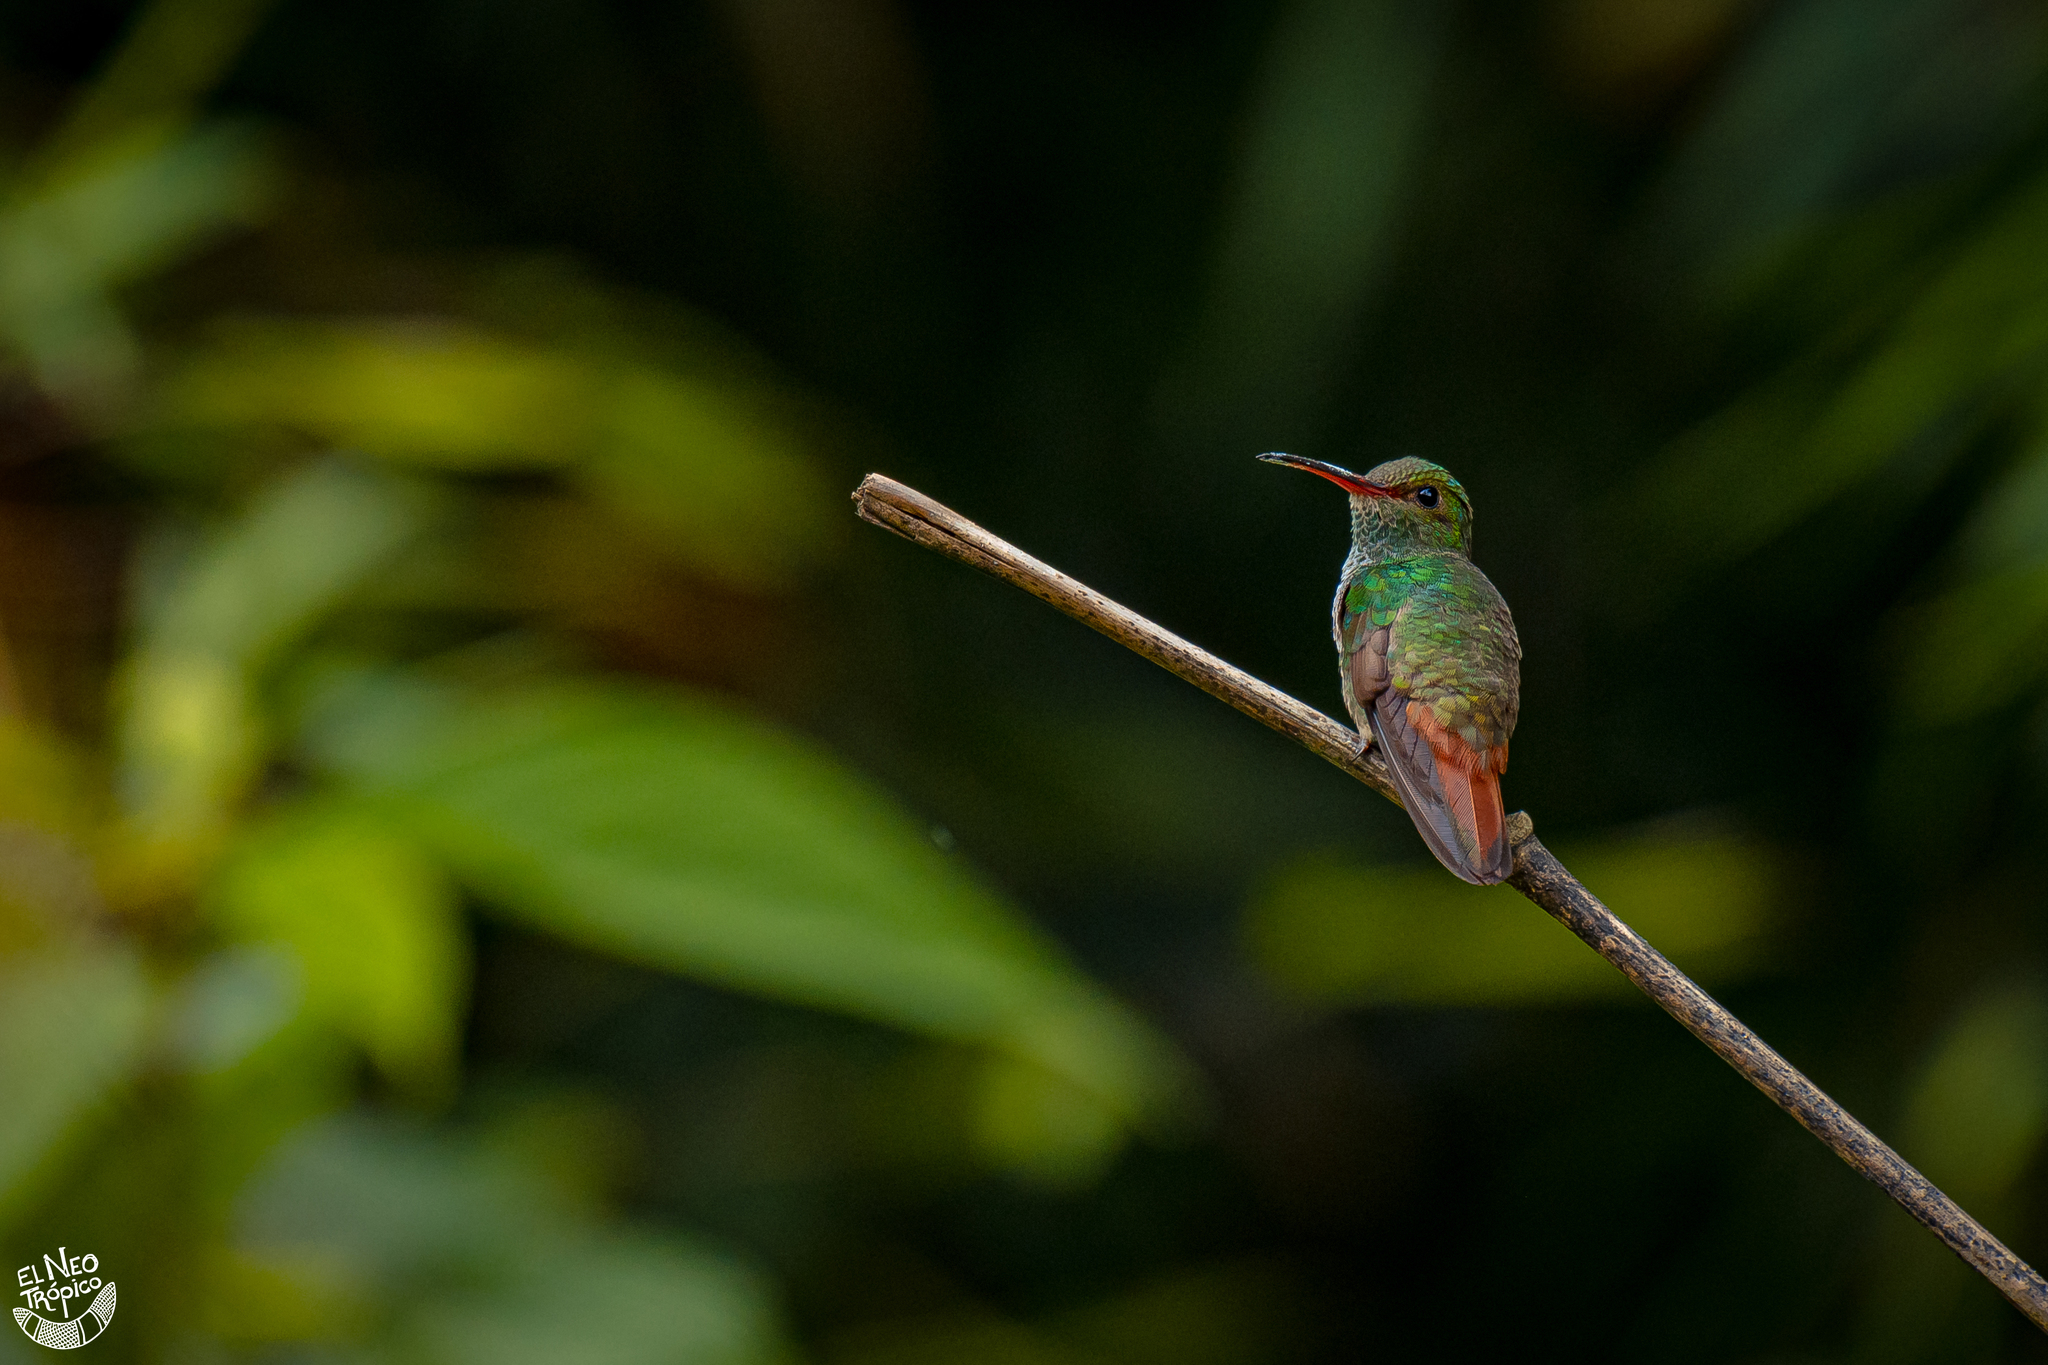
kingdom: Animalia
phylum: Chordata
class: Aves
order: Apodiformes
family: Trochilidae
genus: Amazilia
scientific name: Amazilia tzacatl
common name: Rufous-tailed hummingbird
